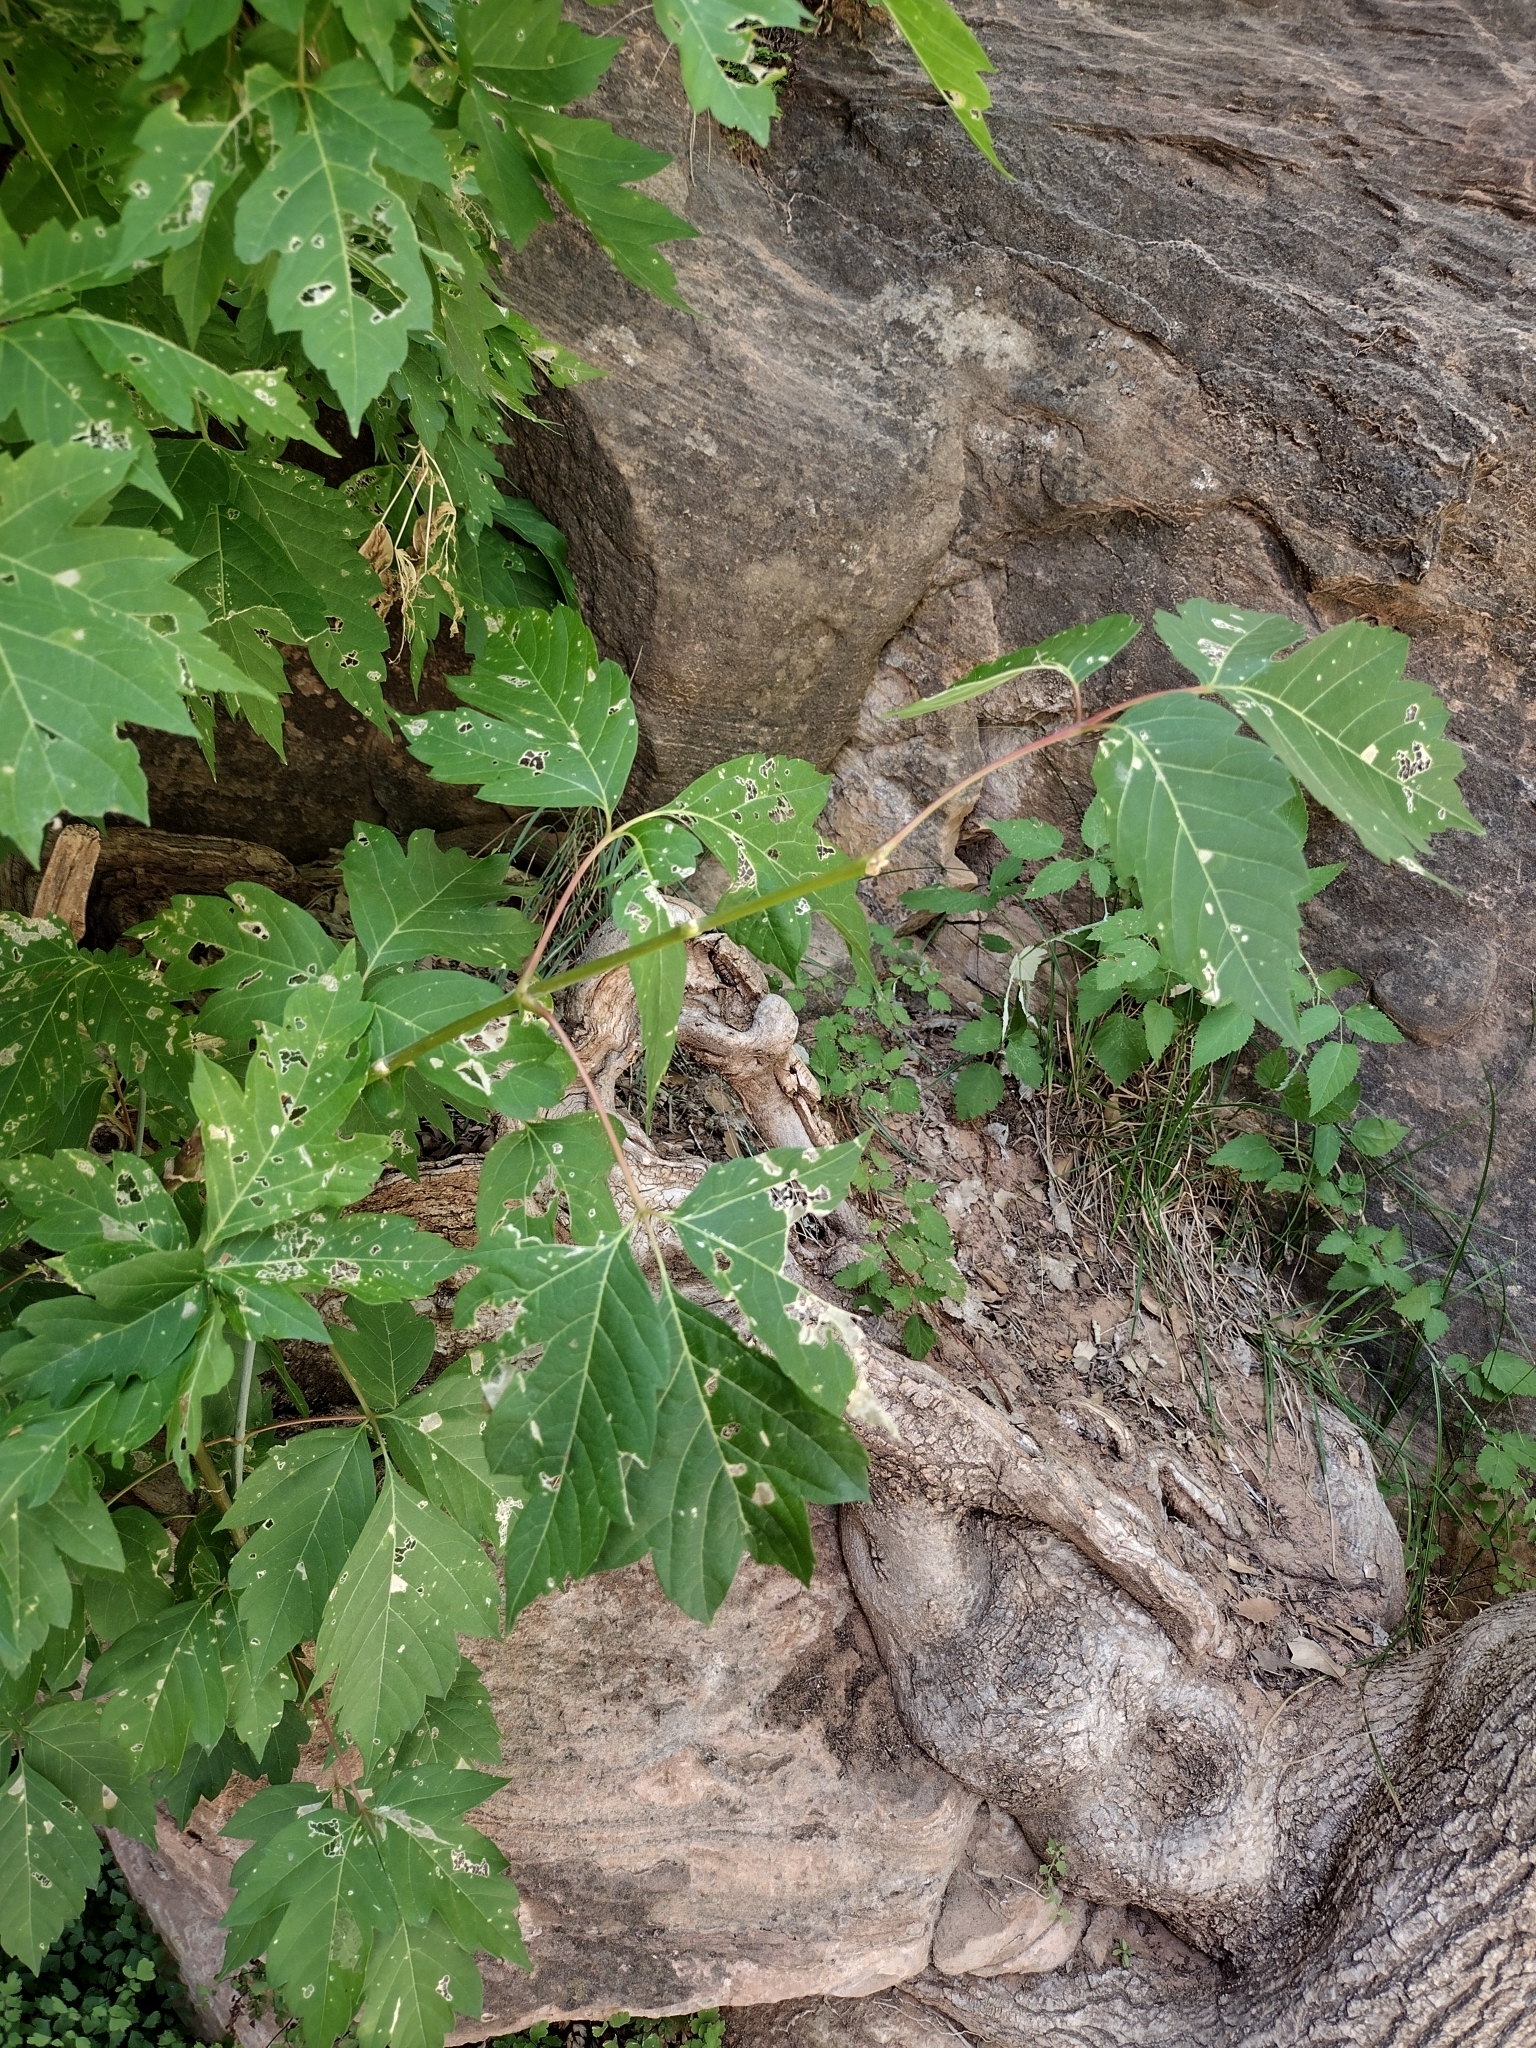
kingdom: Plantae
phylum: Tracheophyta
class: Magnoliopsida
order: Sapindales
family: Sapindaceae
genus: Acer
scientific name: Acer negundo
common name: Ashleaf maple
